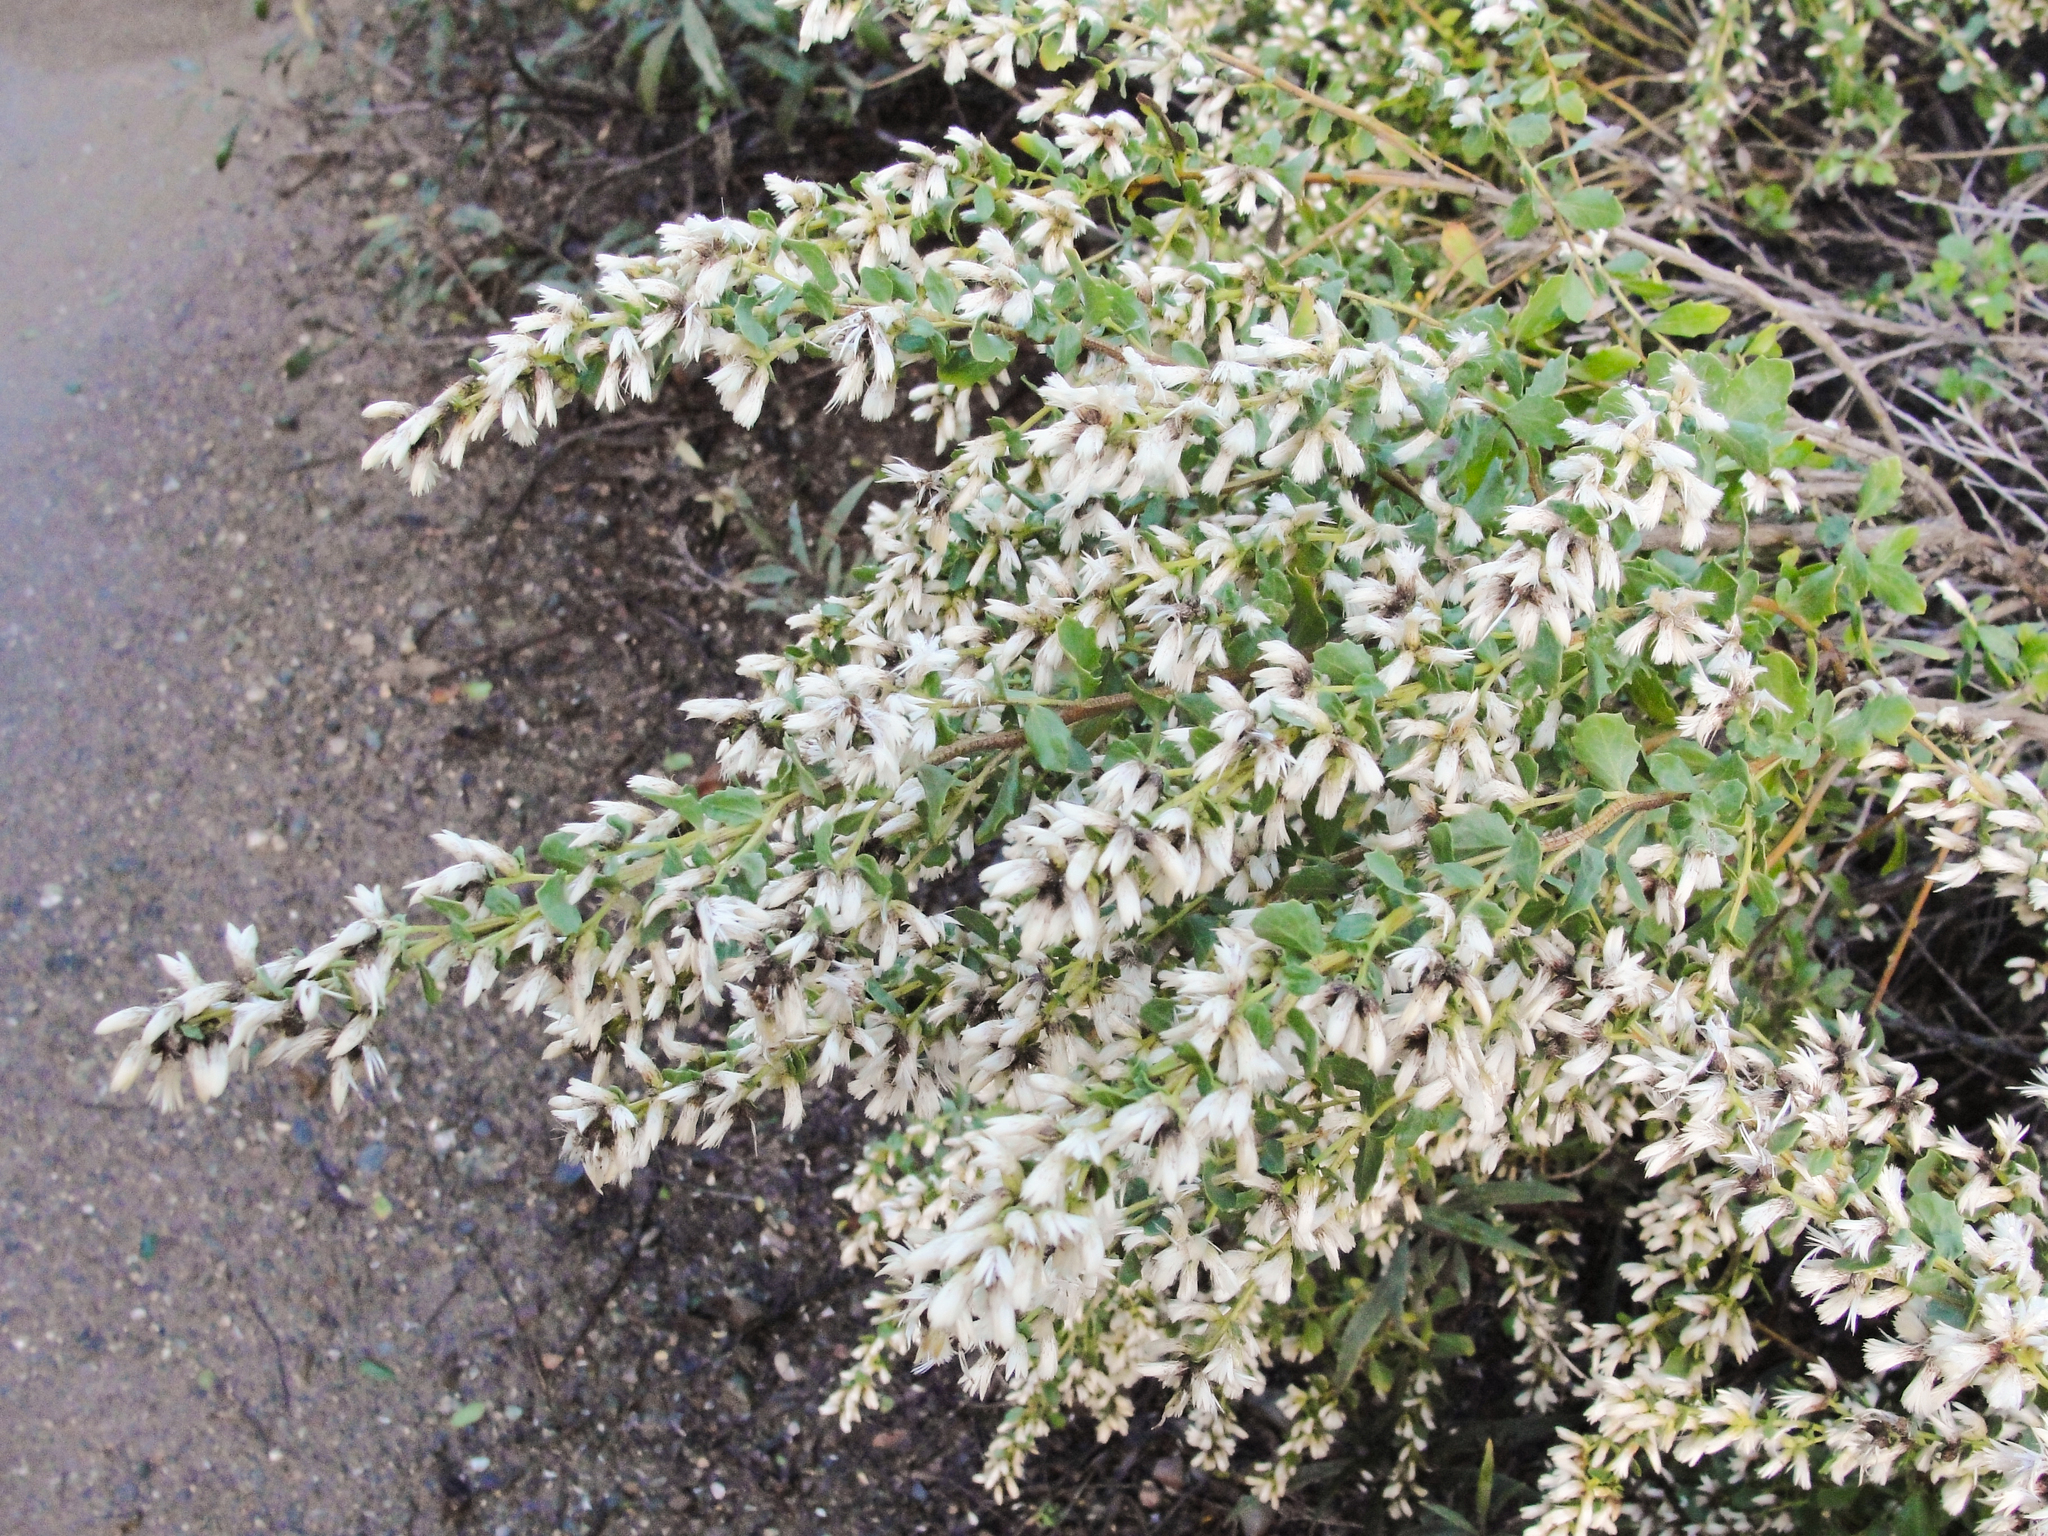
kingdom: Plantae
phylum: Tracheophyta
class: Magnoliopsida
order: Asterales
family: Asteraceae
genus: Baccharis
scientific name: Baccharis pilularis
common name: Coyotebrush
